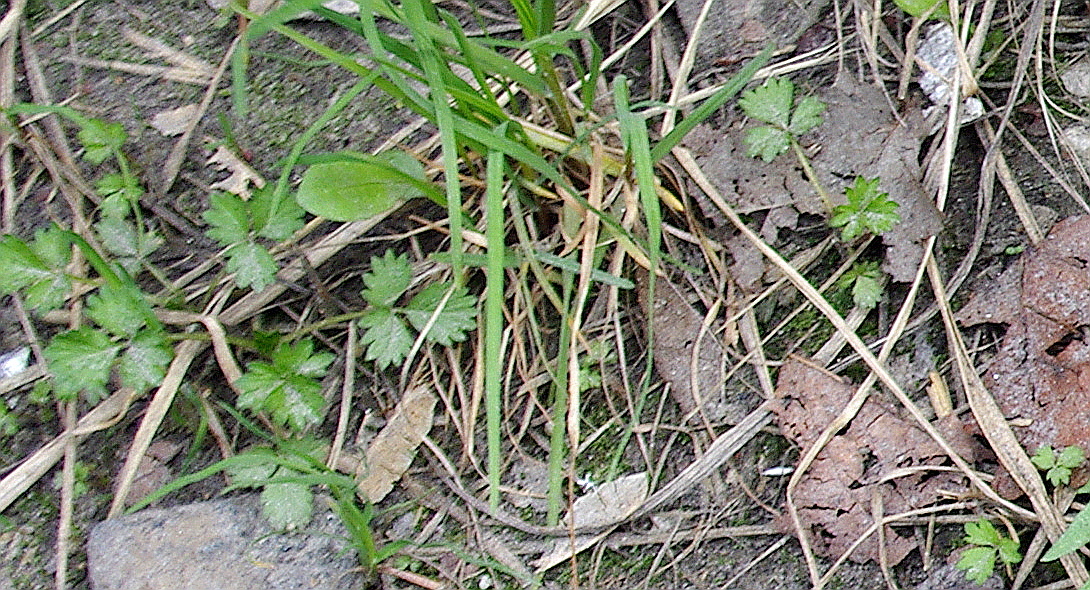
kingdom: Plantae
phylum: Tracheophyta
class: Magnoliopsida
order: Rosales
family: Rosaceae
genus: Potentilla
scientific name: Potentilla norvegica
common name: Ternate-leaved cinquefoil
